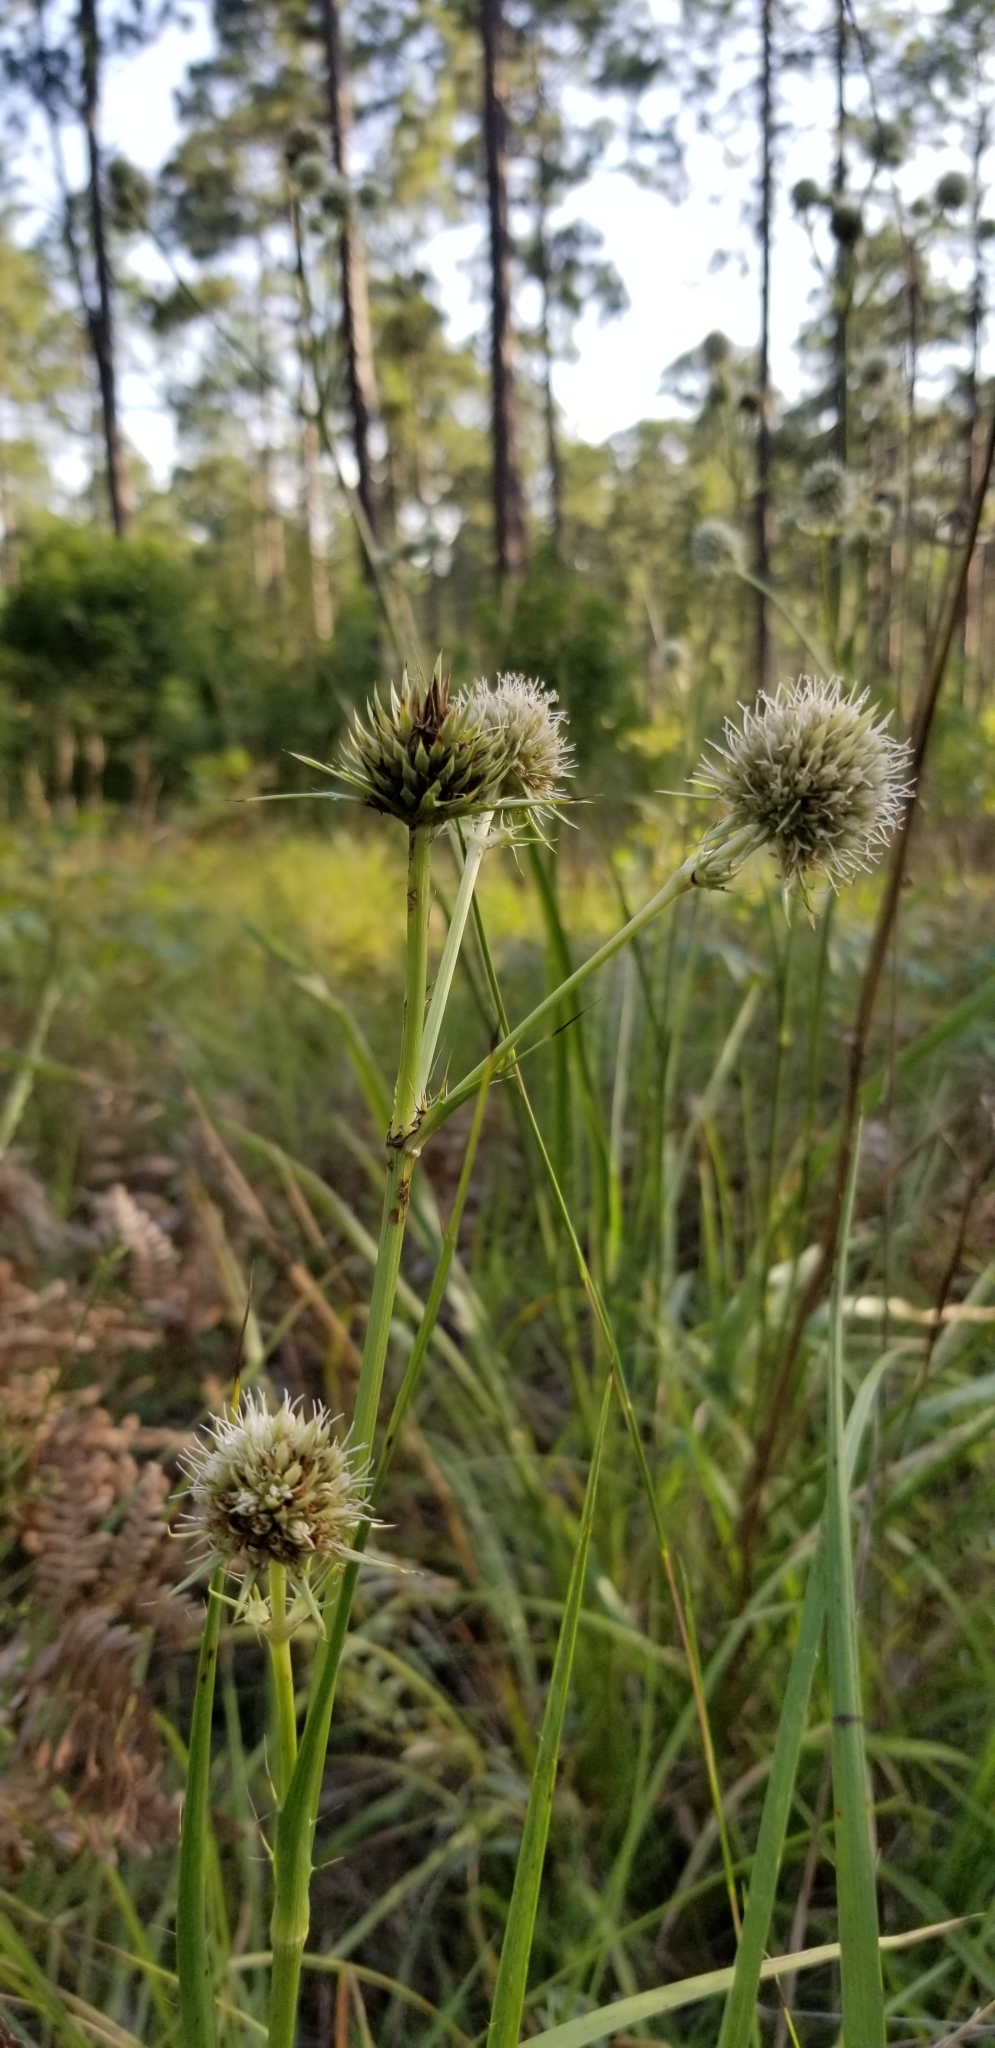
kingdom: Plantae
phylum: Tracheophyta
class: Magnoliopsida
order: Apiales
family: Apiaceae
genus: Eryngium
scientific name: Eryngium yuccifolium
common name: Button eryngo
